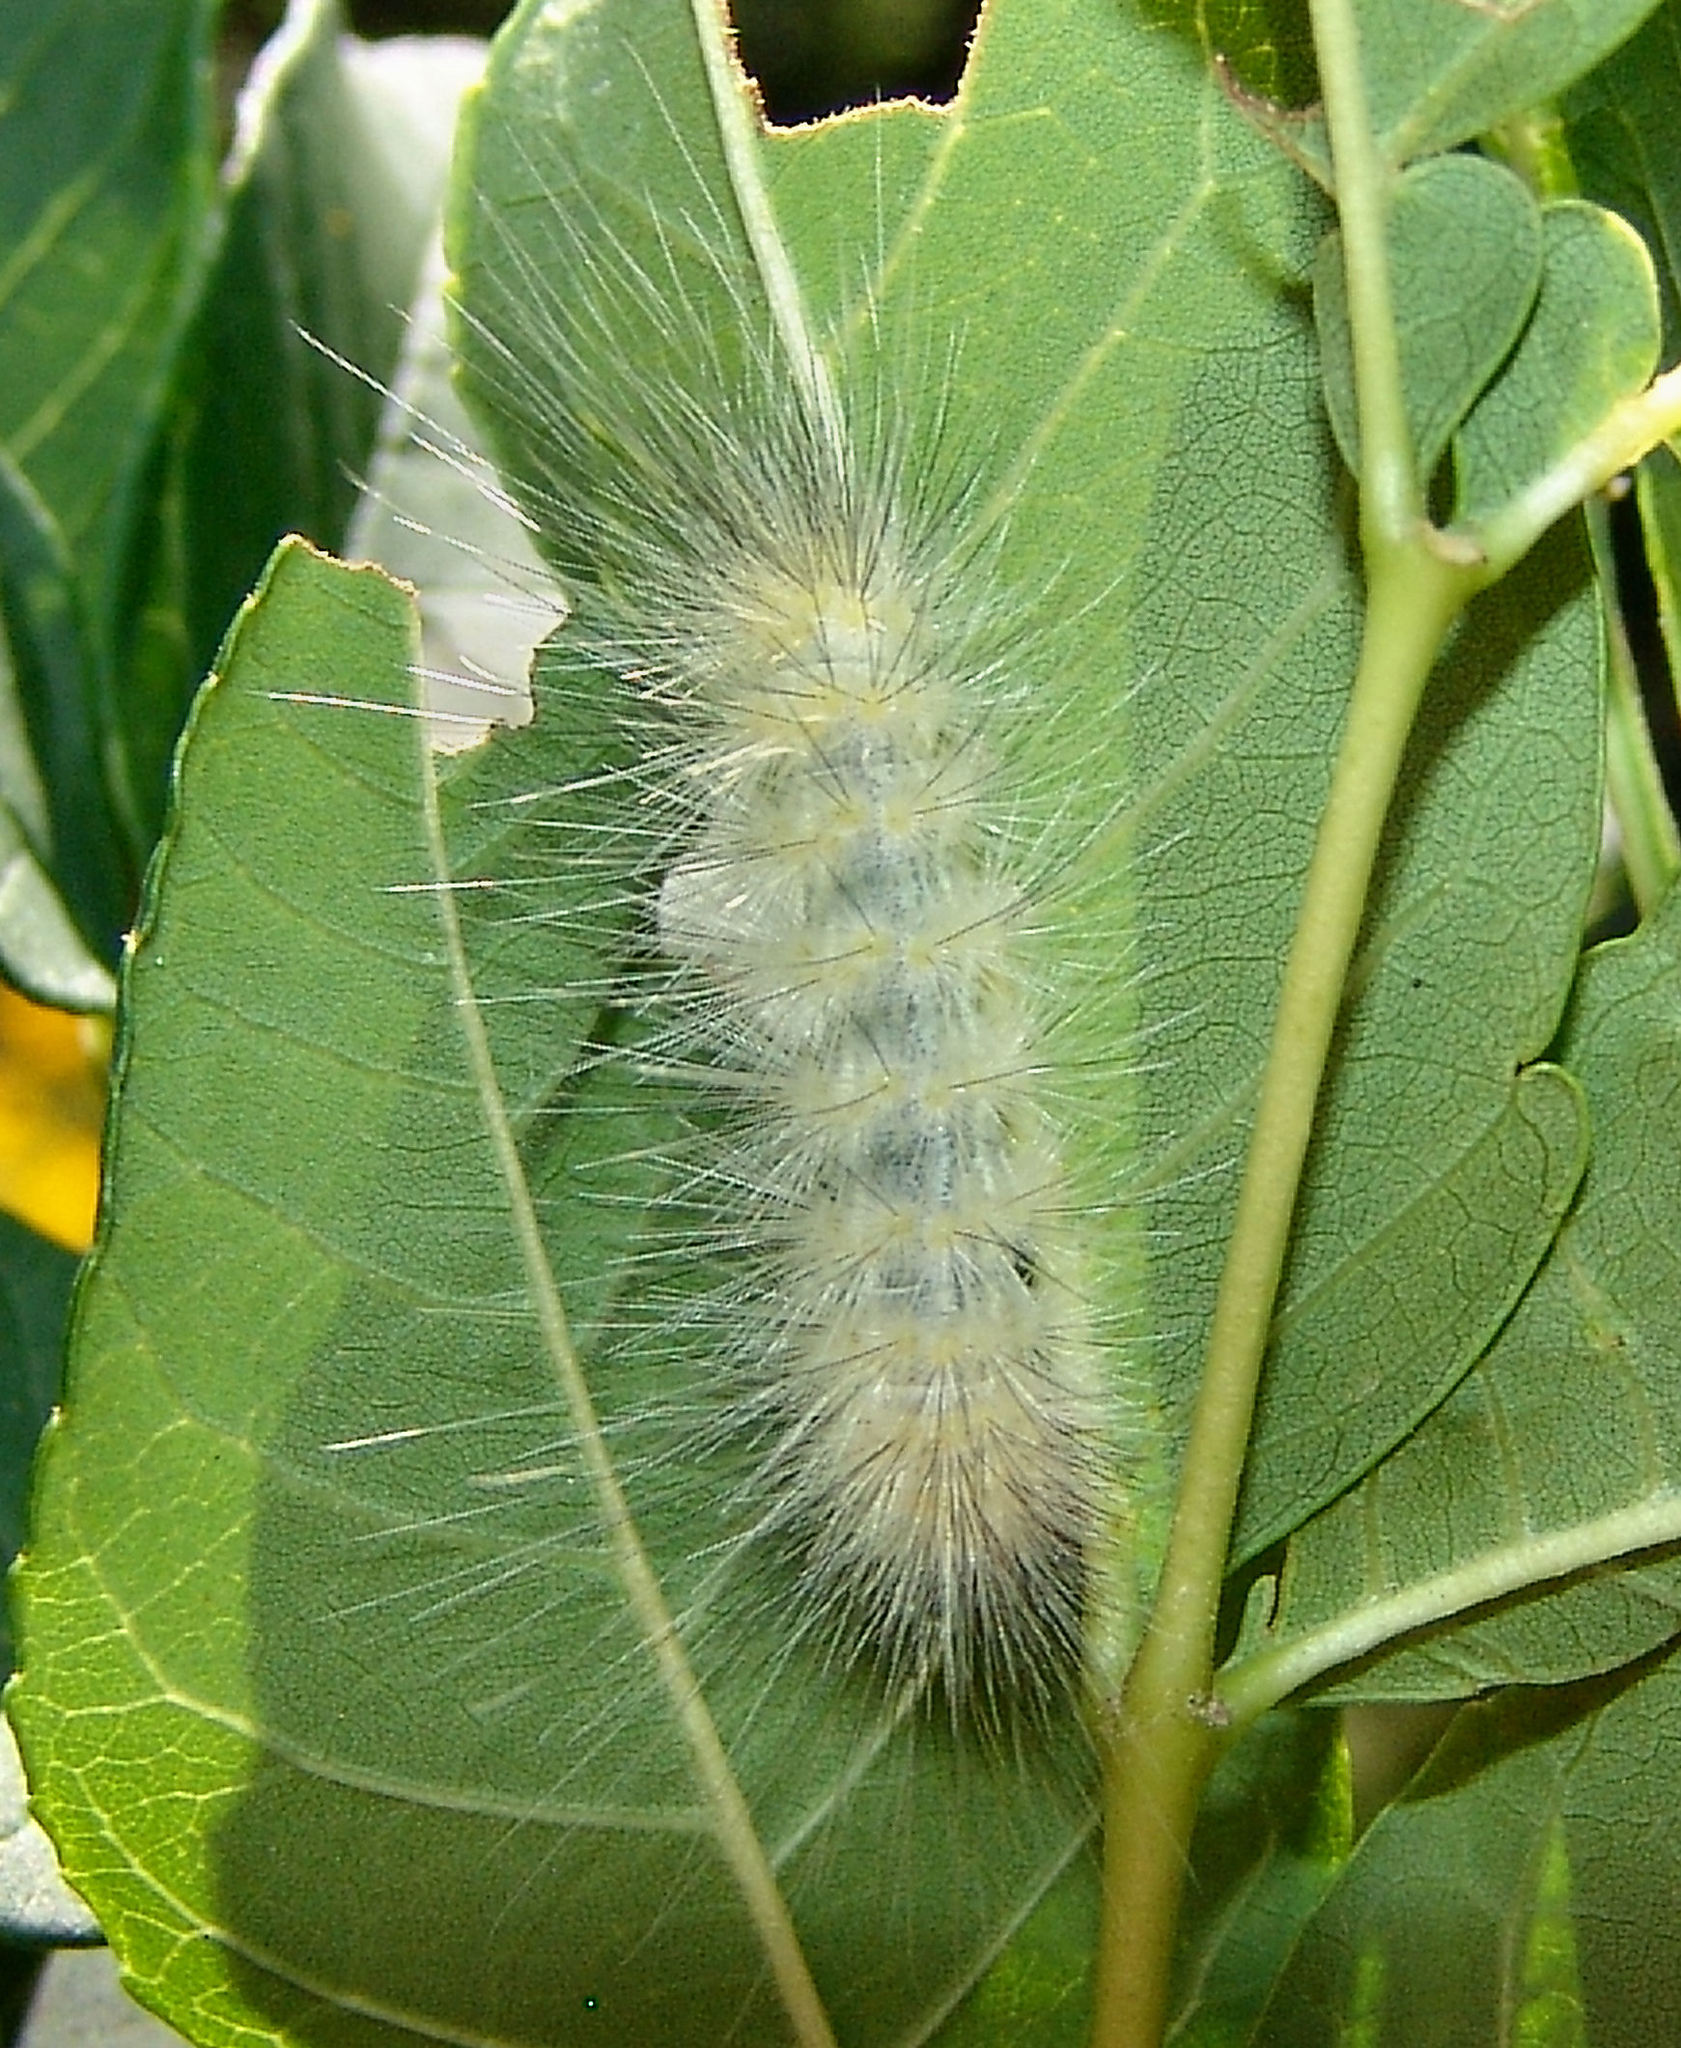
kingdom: Animalia
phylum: Arthropoda
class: Insecta
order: Lepidoptera
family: Erebidae
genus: Spilosoma
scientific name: Spilosoma virginica
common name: Virginia tiger moth
